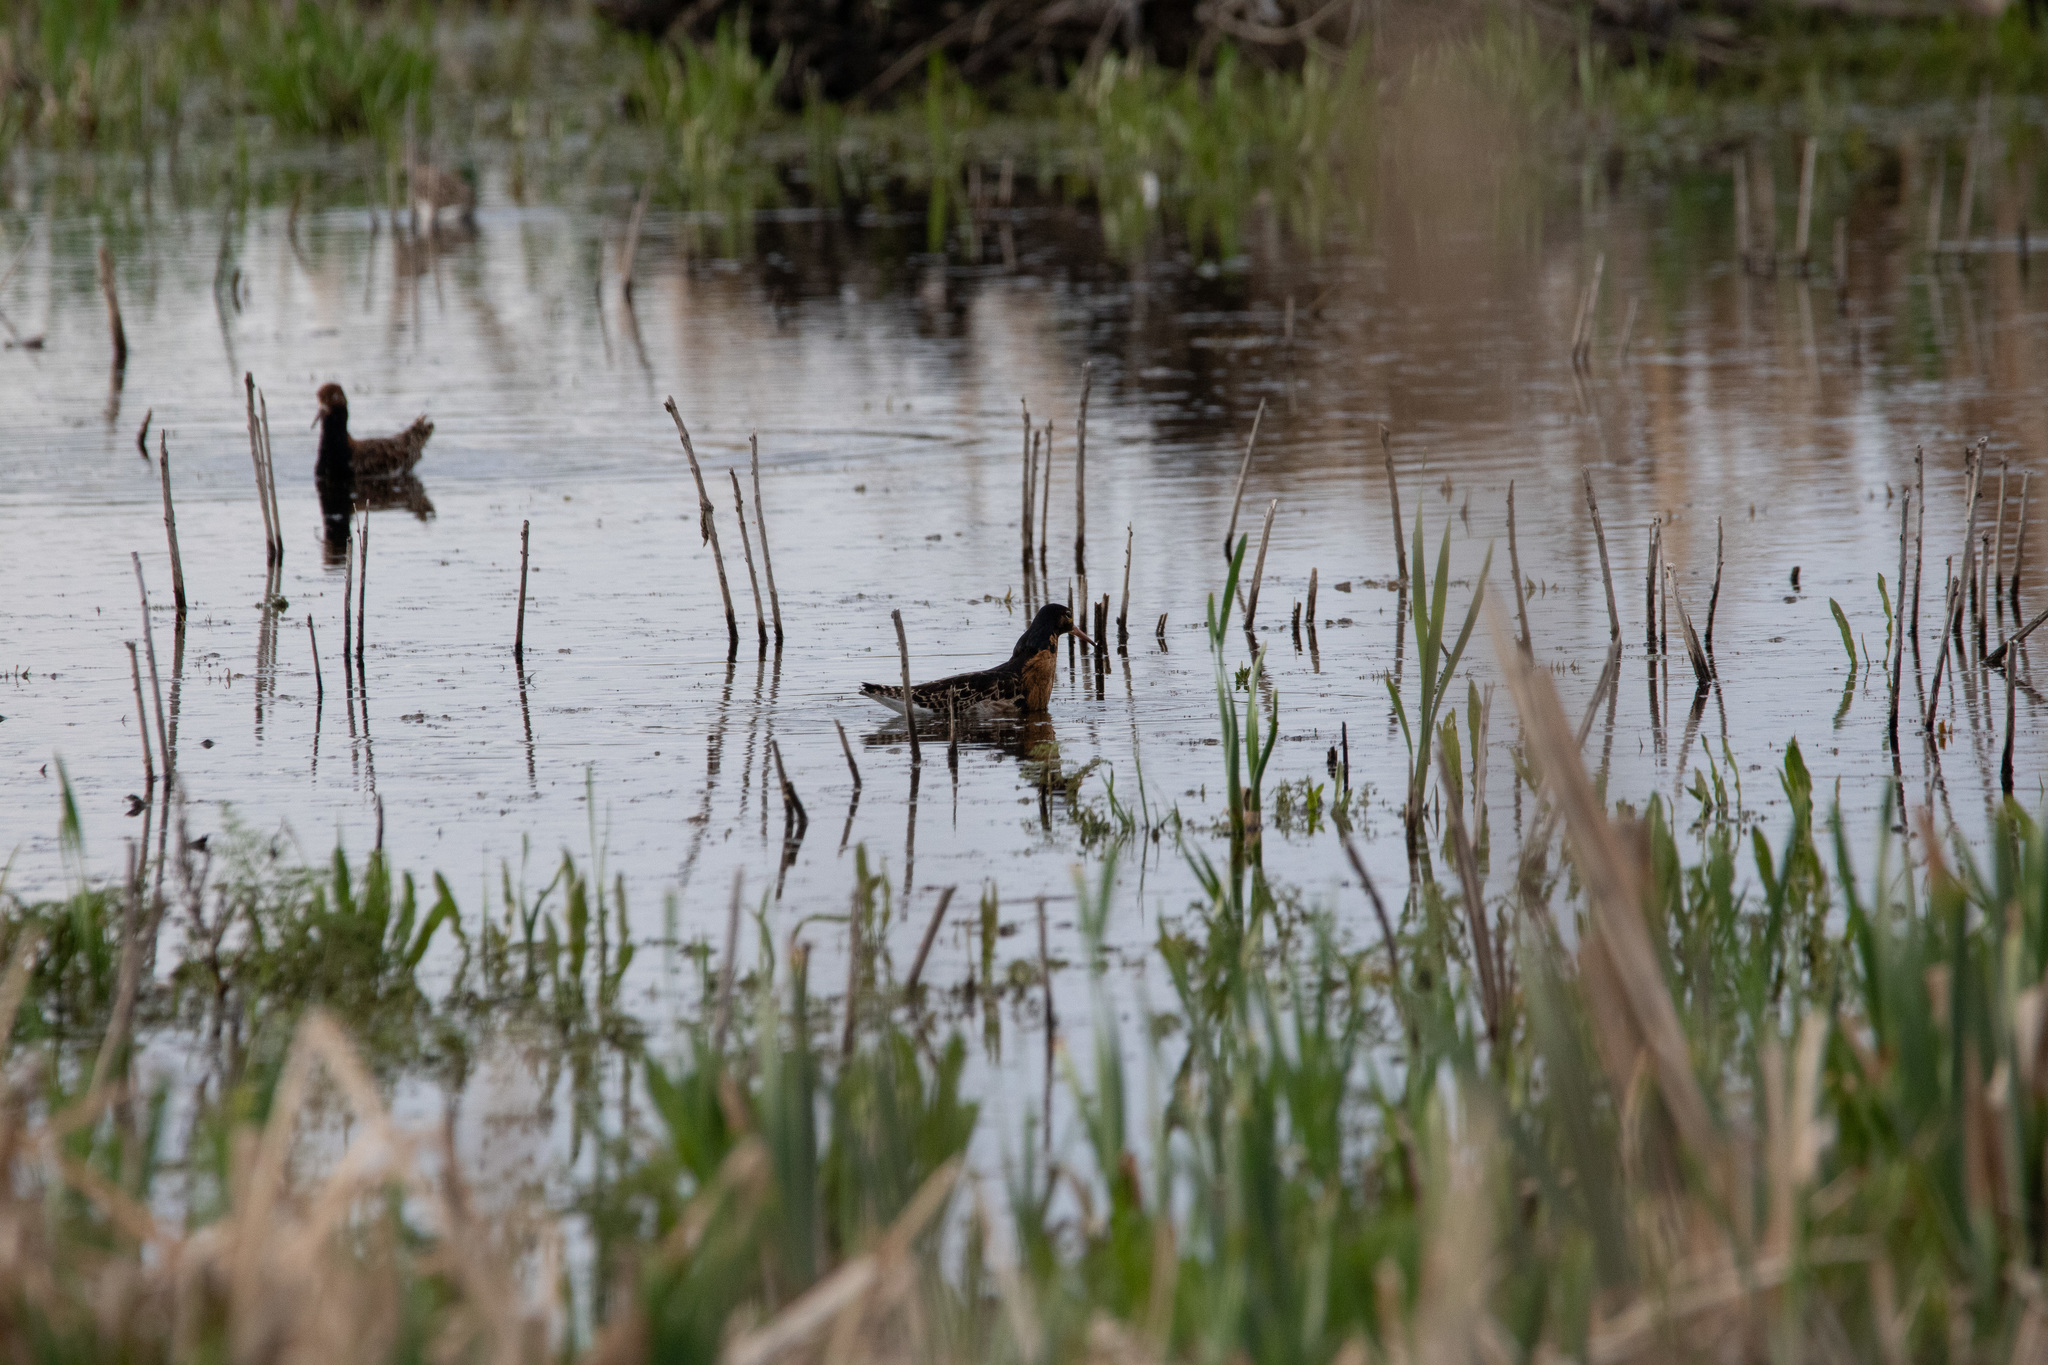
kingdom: Animalia
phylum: Chordata
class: Aves
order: Charadriiformes
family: Scolopacidae
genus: Calidris
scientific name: Calidris pugnax
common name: Ruff
